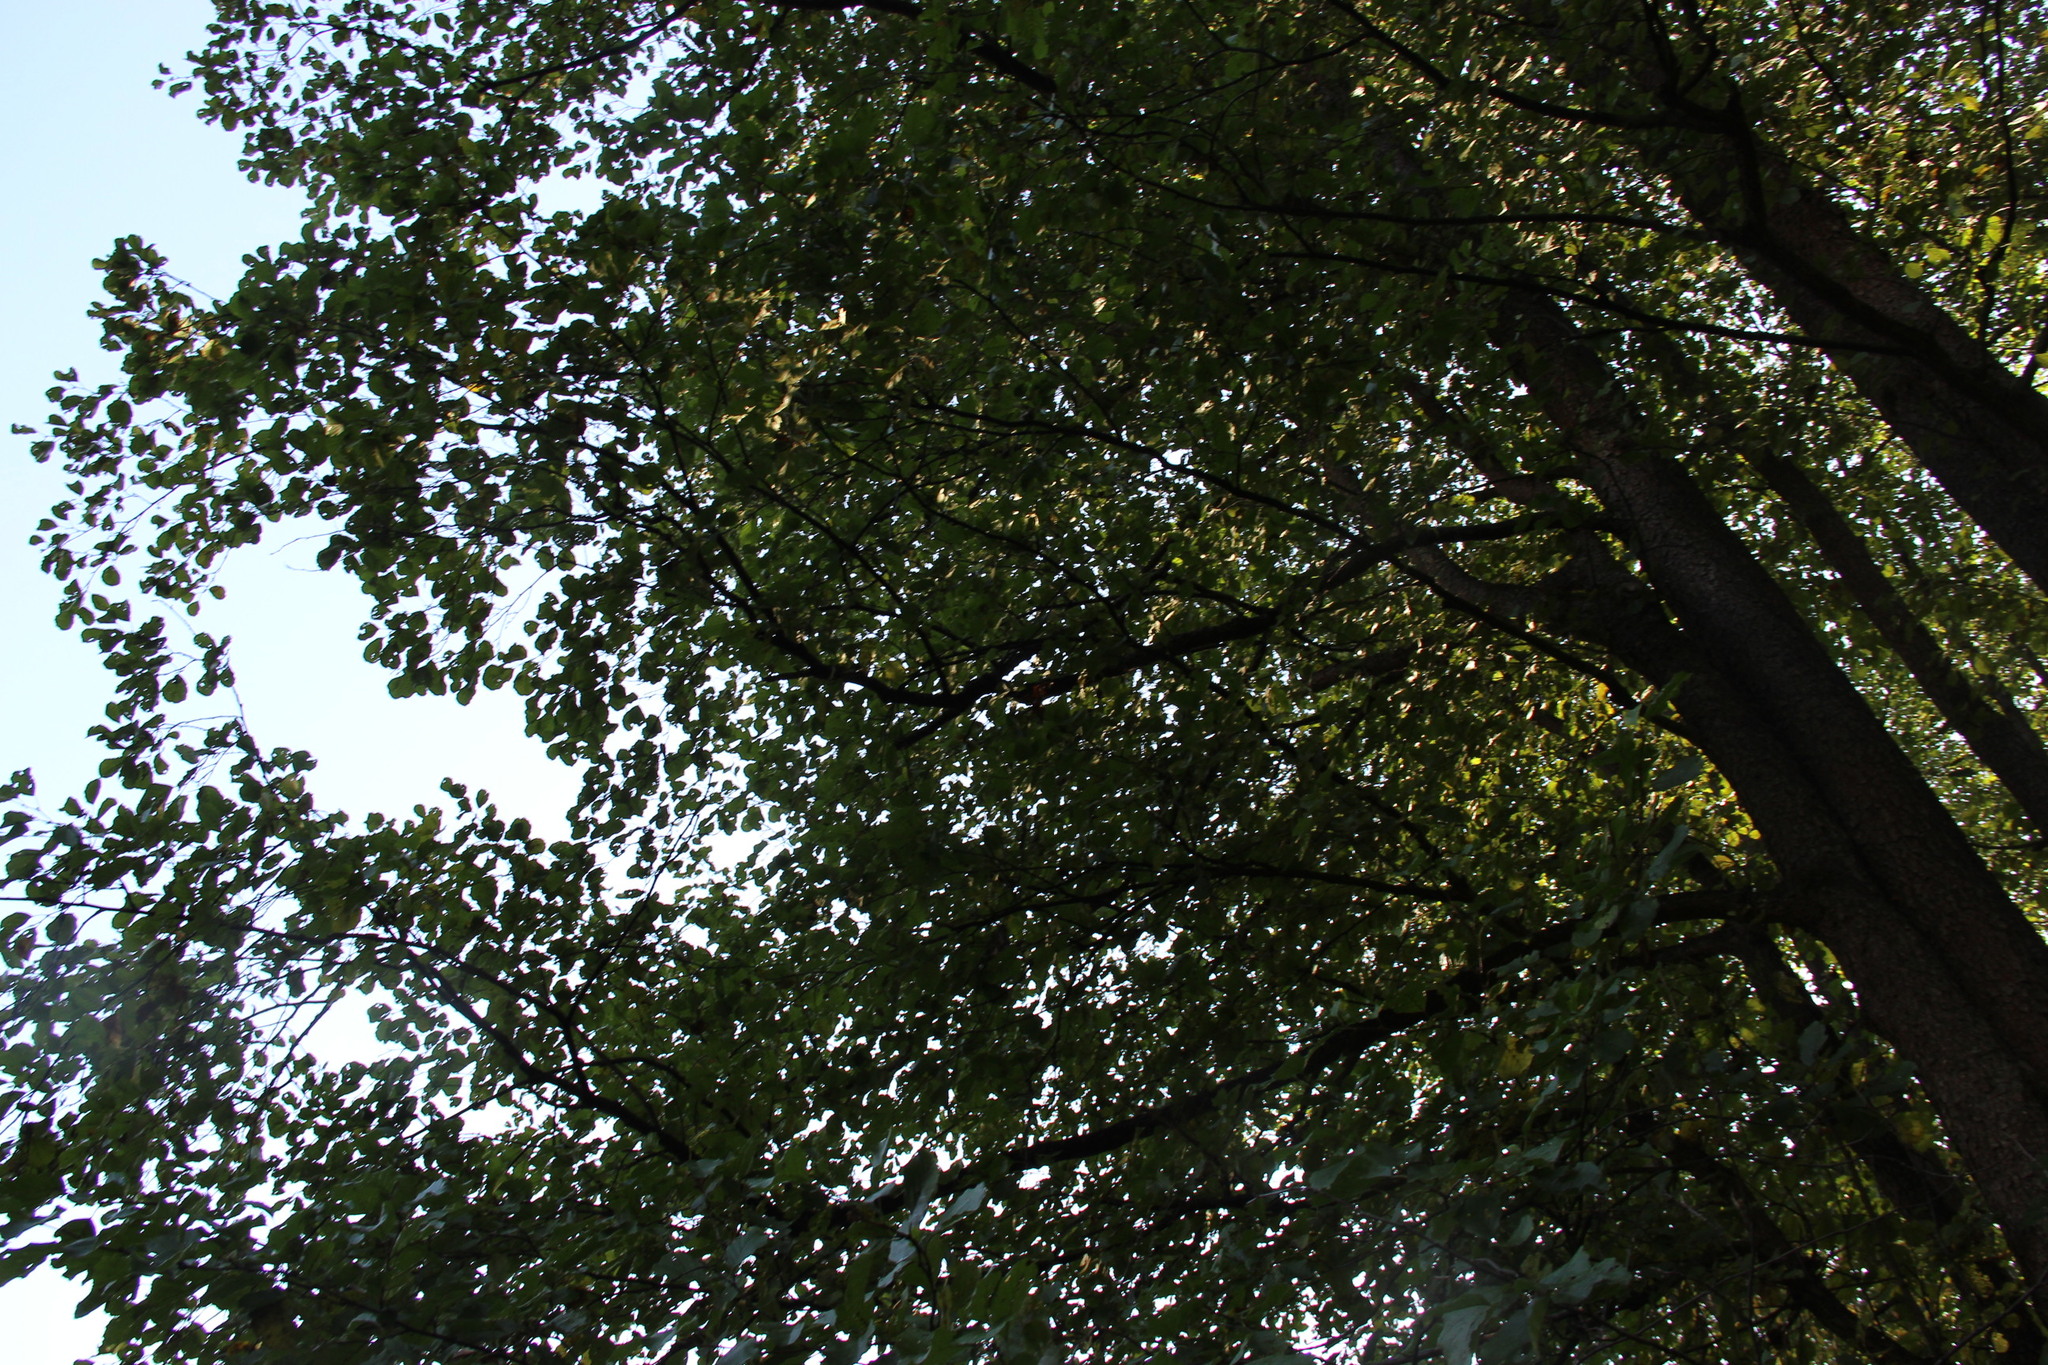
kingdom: Plantae
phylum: Tracheophyta
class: Magnoliopsida
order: Fagales
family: Betulaceae
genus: Alnus
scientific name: Alnus glutinosa
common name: Black alder
